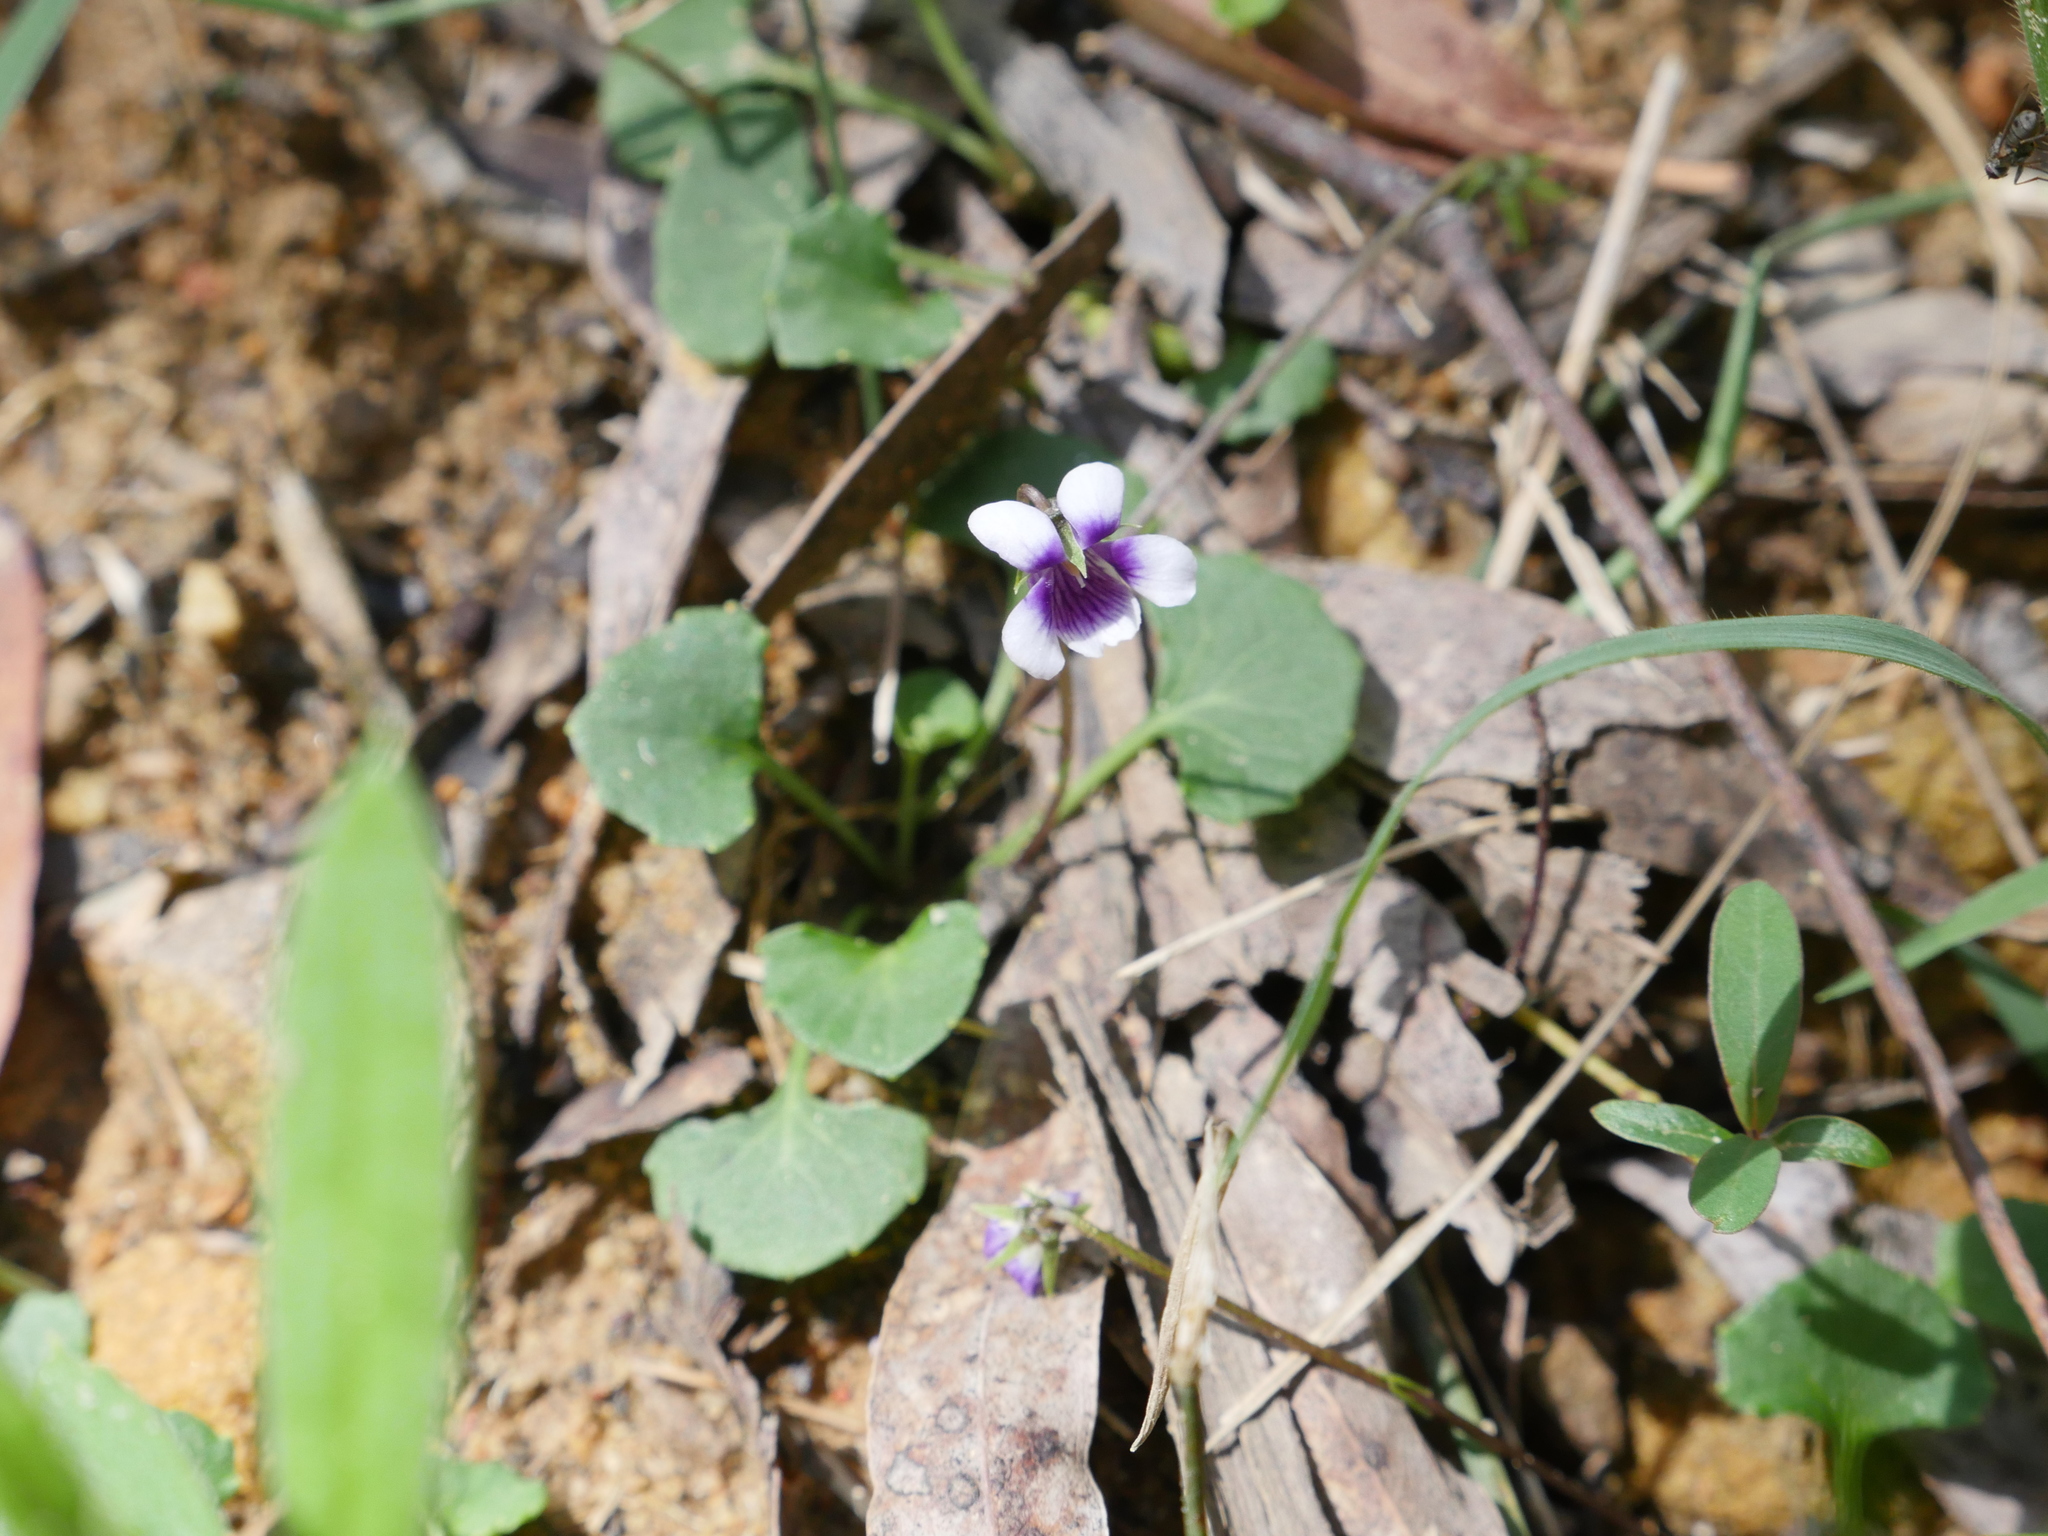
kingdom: Plantae
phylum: Tracheophyta
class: Magnoliopsida
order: Malpighiales
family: Violaceae
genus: Viola
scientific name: Viola hederacea
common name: Australian violet
